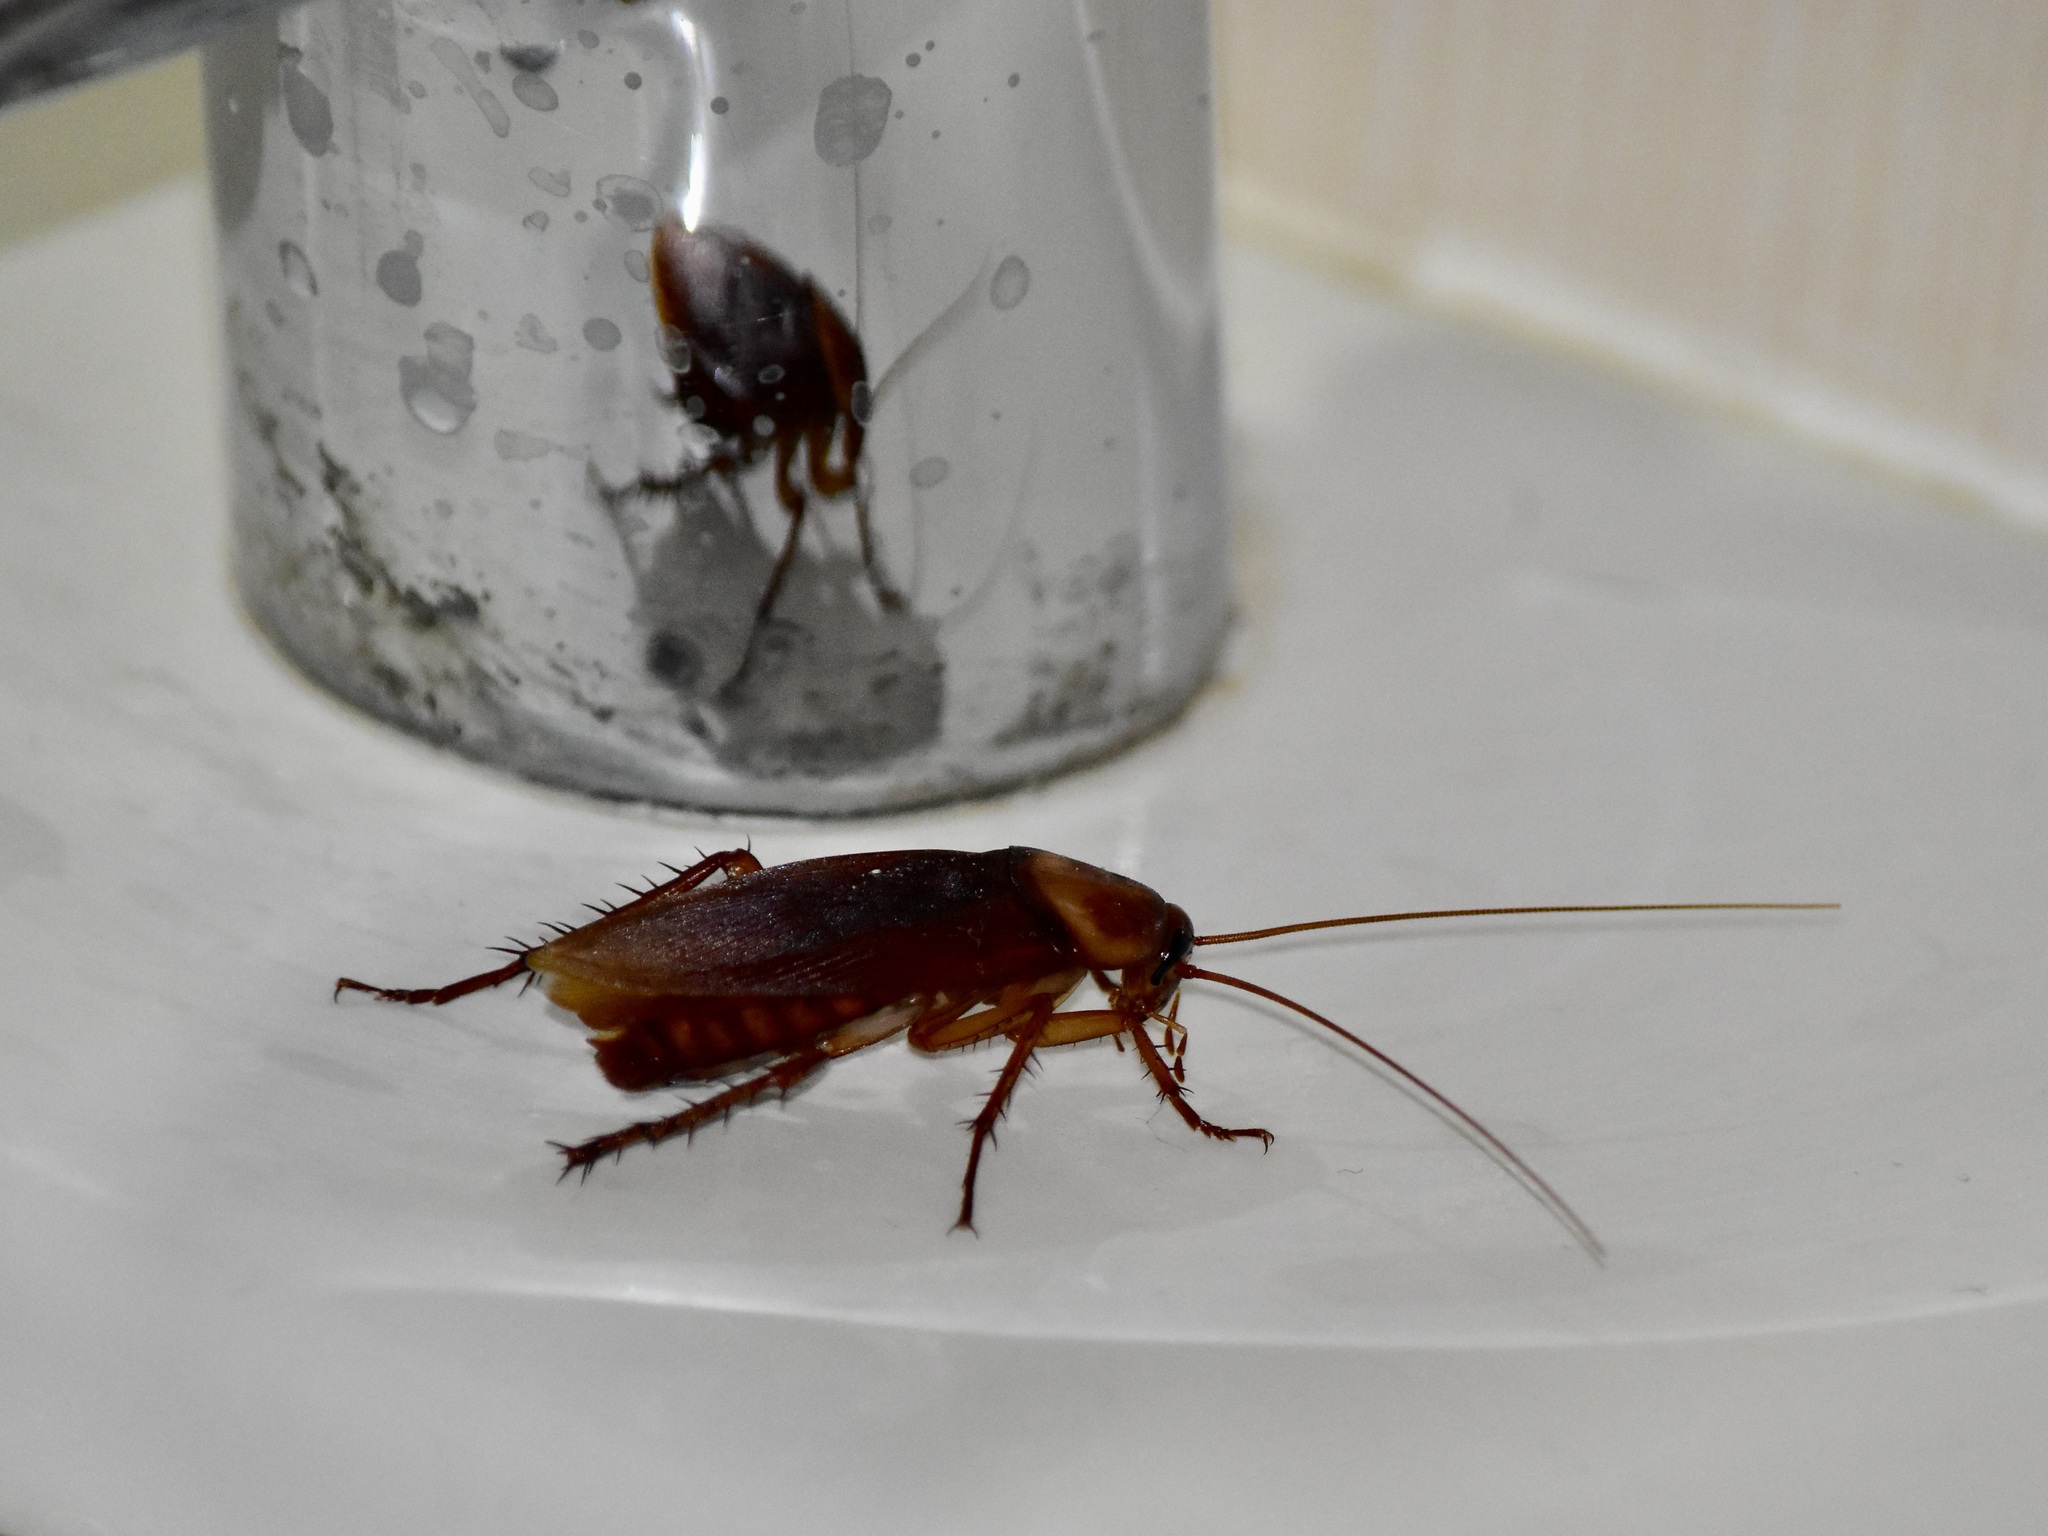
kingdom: Animalia
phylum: Arthropoda
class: Insecta
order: Blattodea
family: Blattidae
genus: Periplaneta
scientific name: Periplaneta americana
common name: American cockroach
